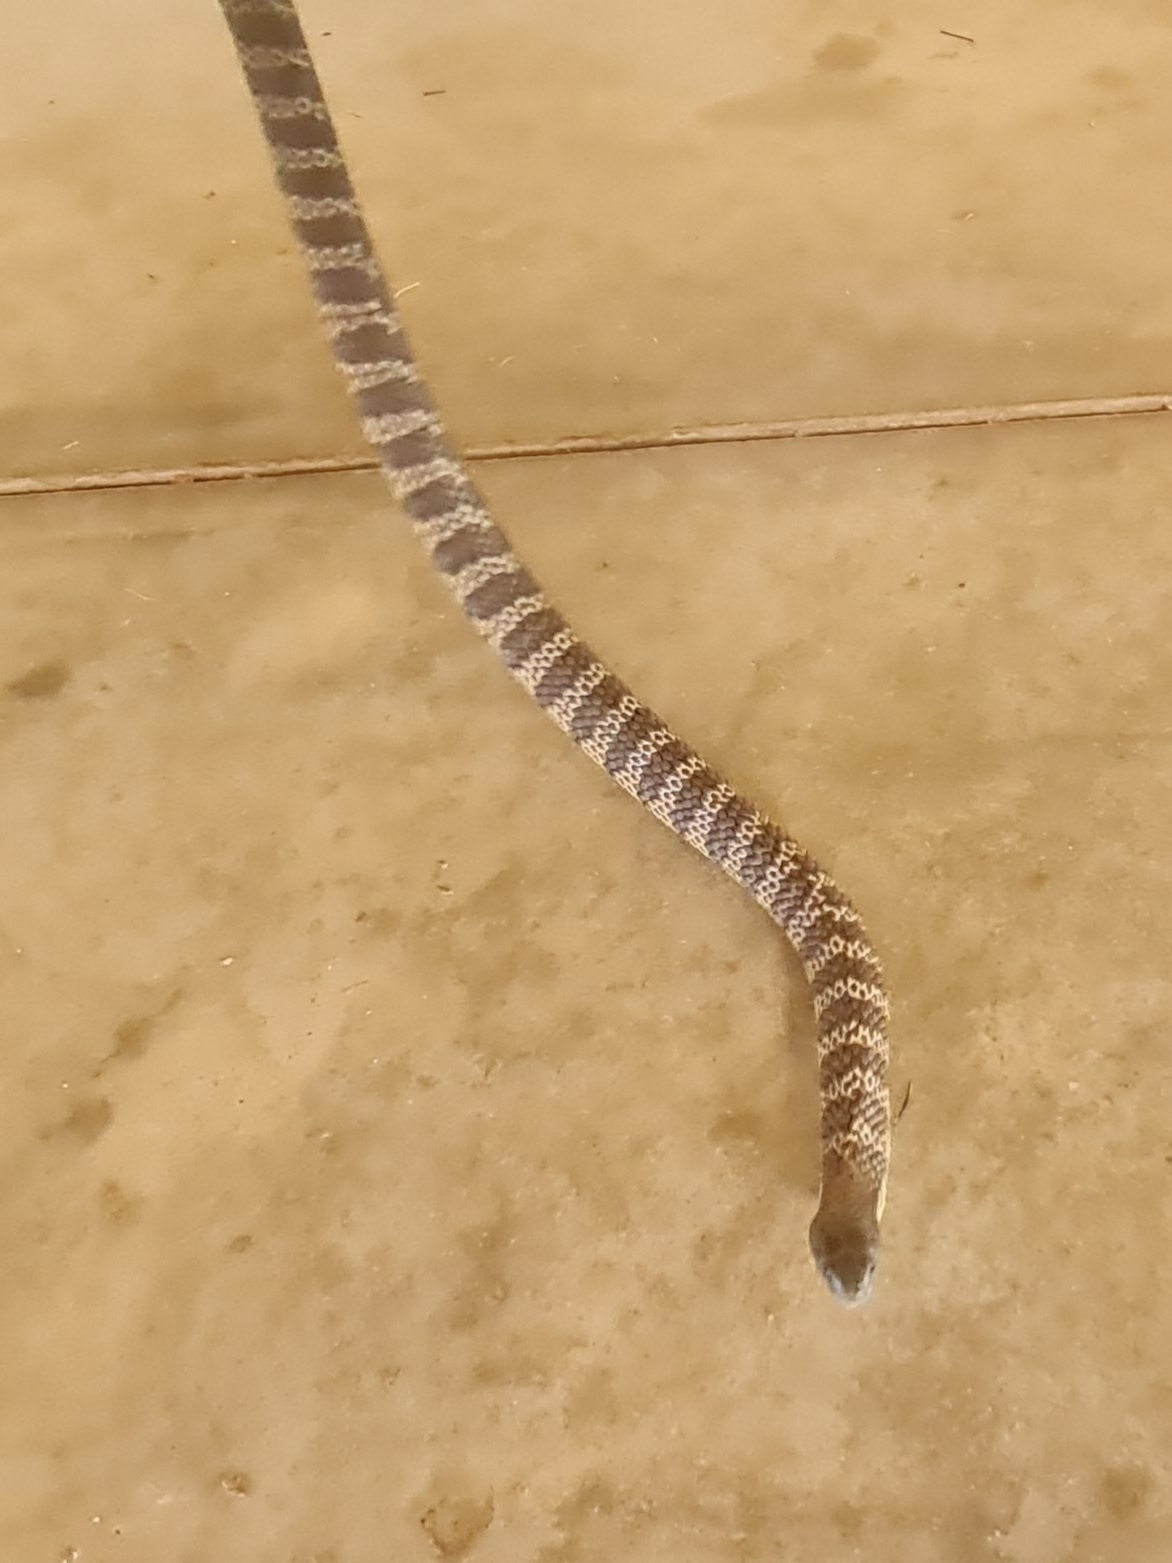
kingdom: Animalia
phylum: Chordata
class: Squamata
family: Elapidae
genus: Notechis
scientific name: Notechis scutatus
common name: Mainland tiger snake
